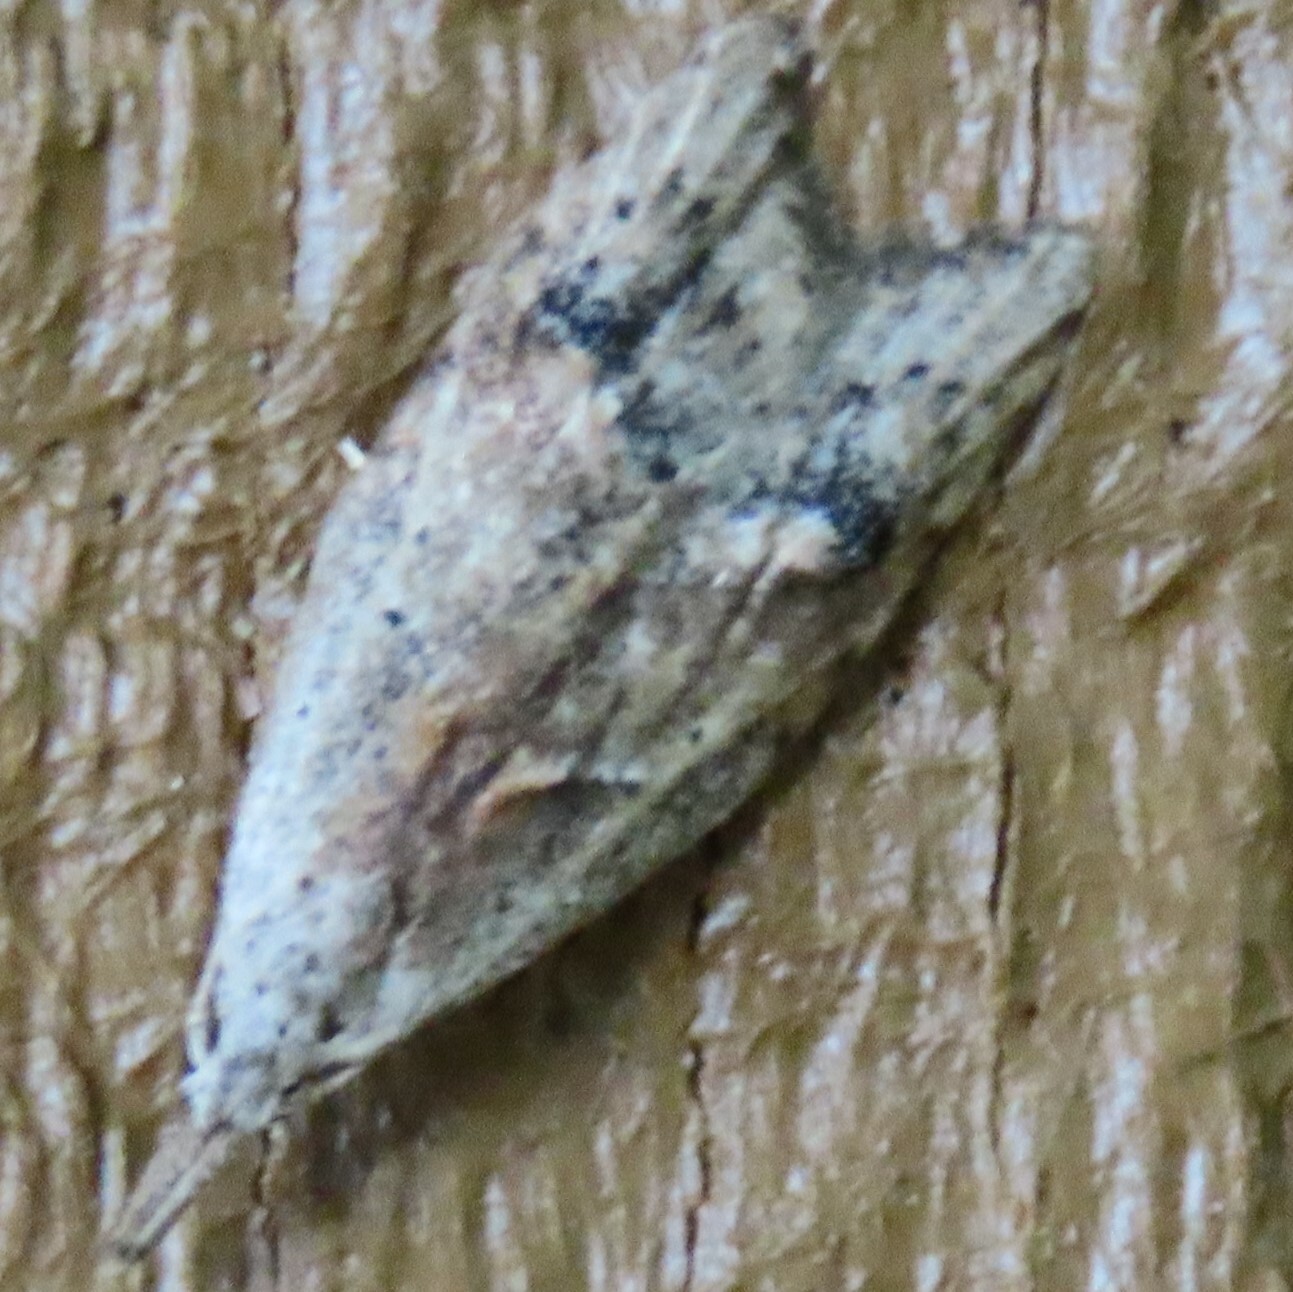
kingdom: Animalia
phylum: Arthropoda
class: Insecta
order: Lepidoptera
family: Carposinidae
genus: Carposina
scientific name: Carposina rubophaga
